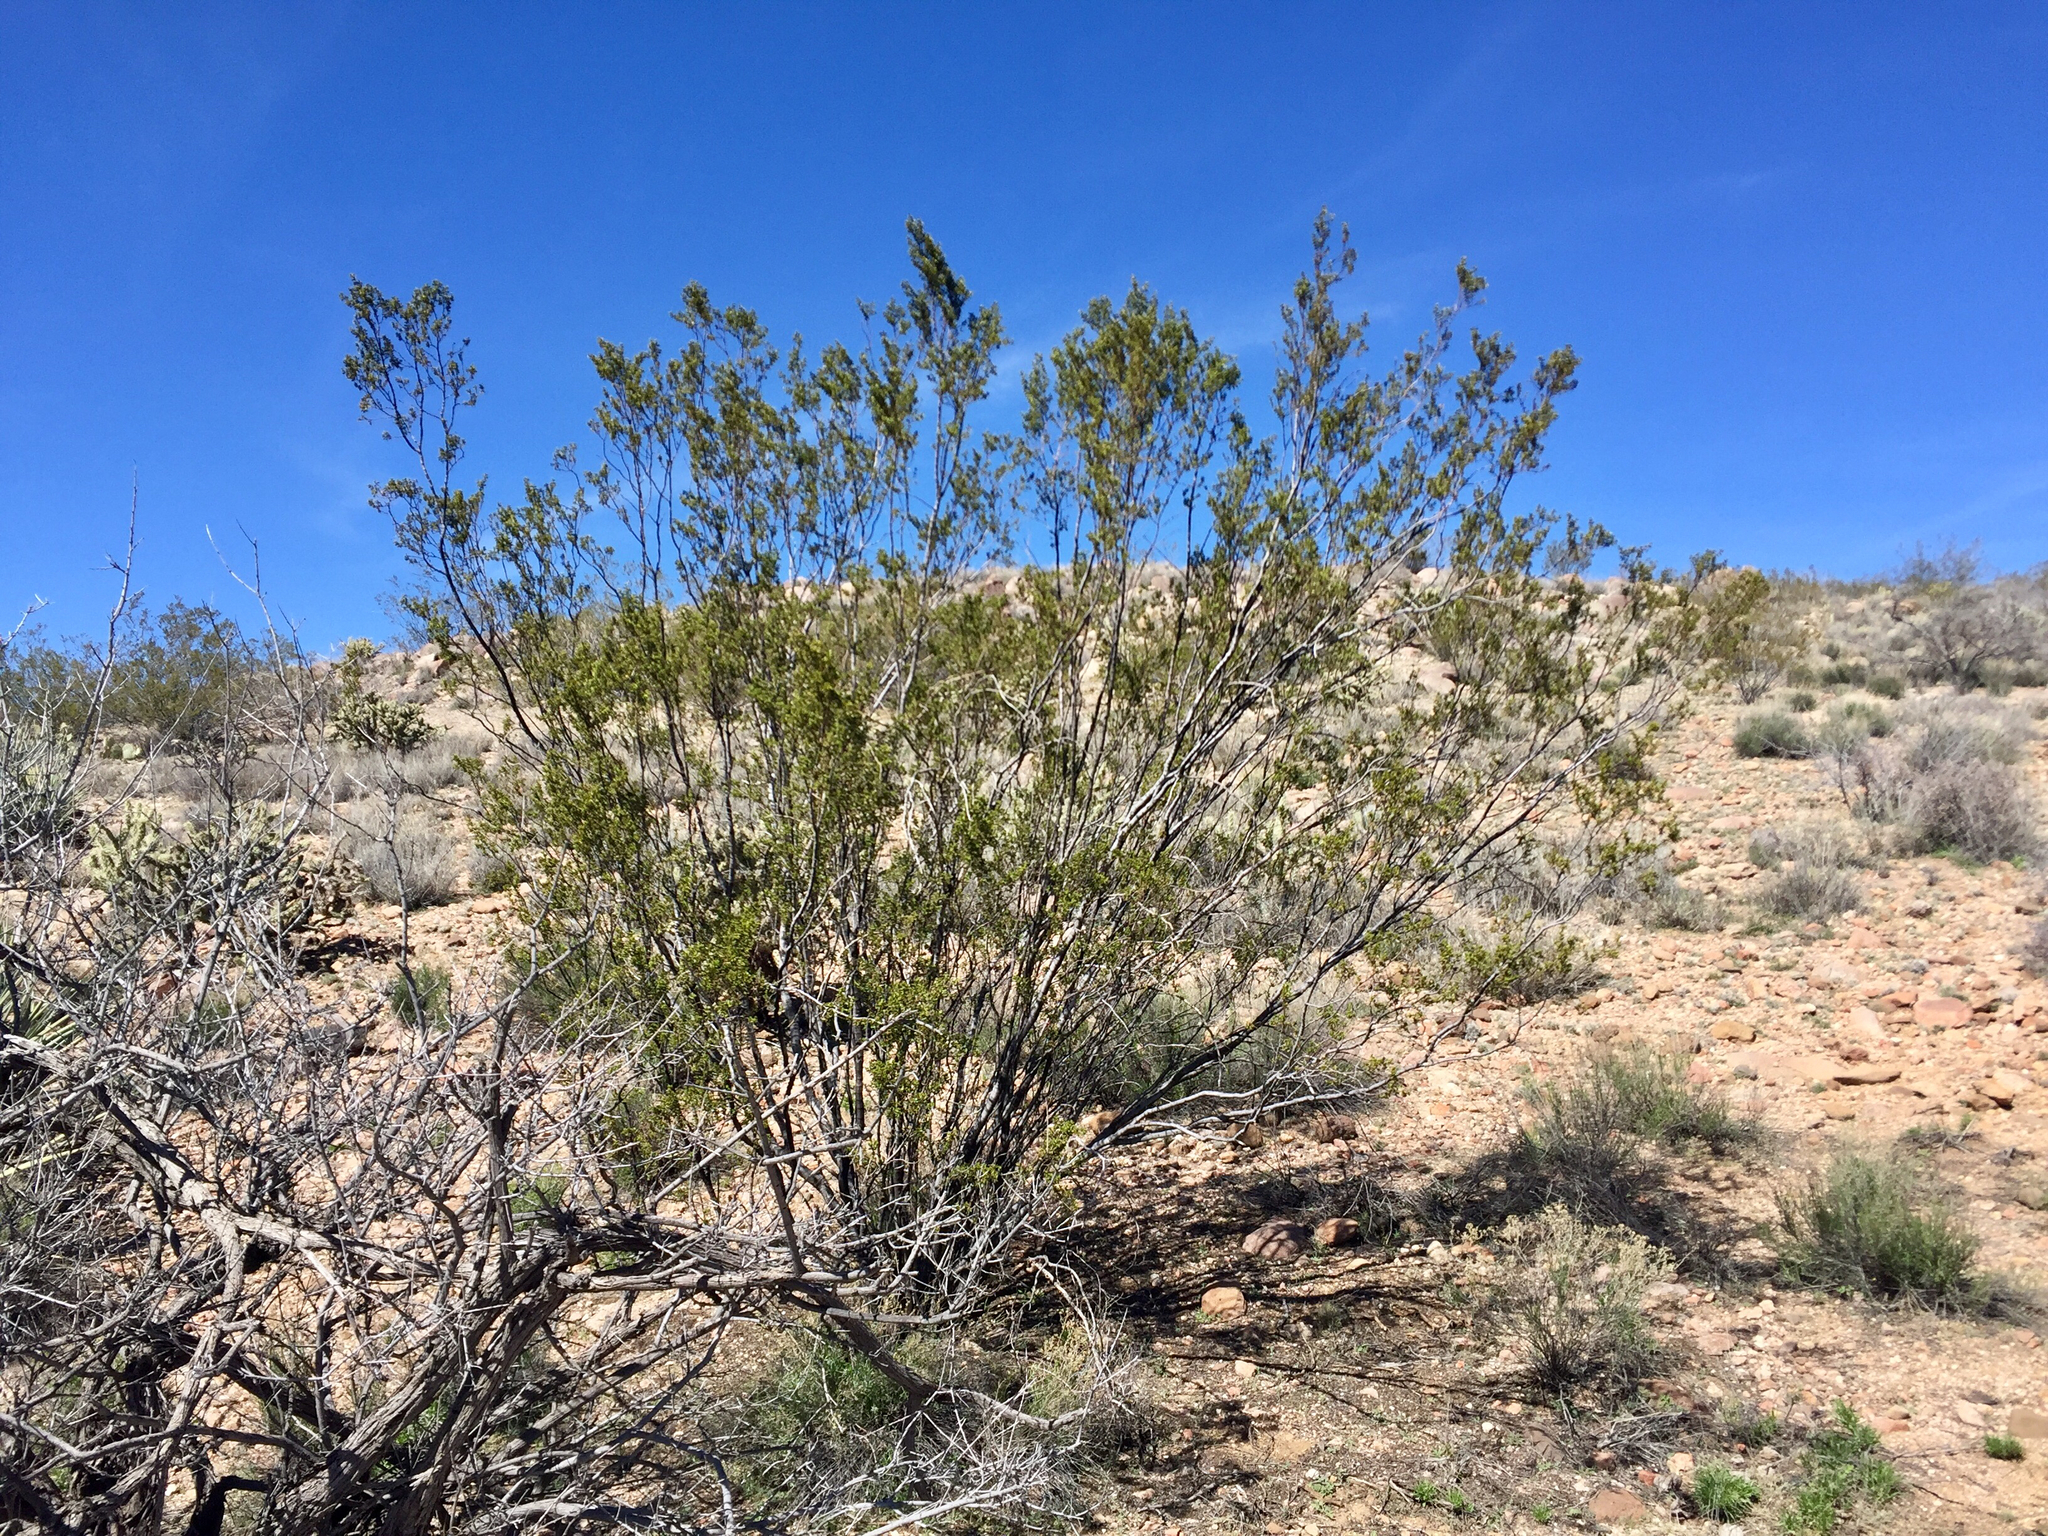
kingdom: Plantae
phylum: Tracheophyta
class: Magnoliopsida
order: Zygophyllales
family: Zygophyllaceae
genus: Larrea
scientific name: Larrea tridentata
